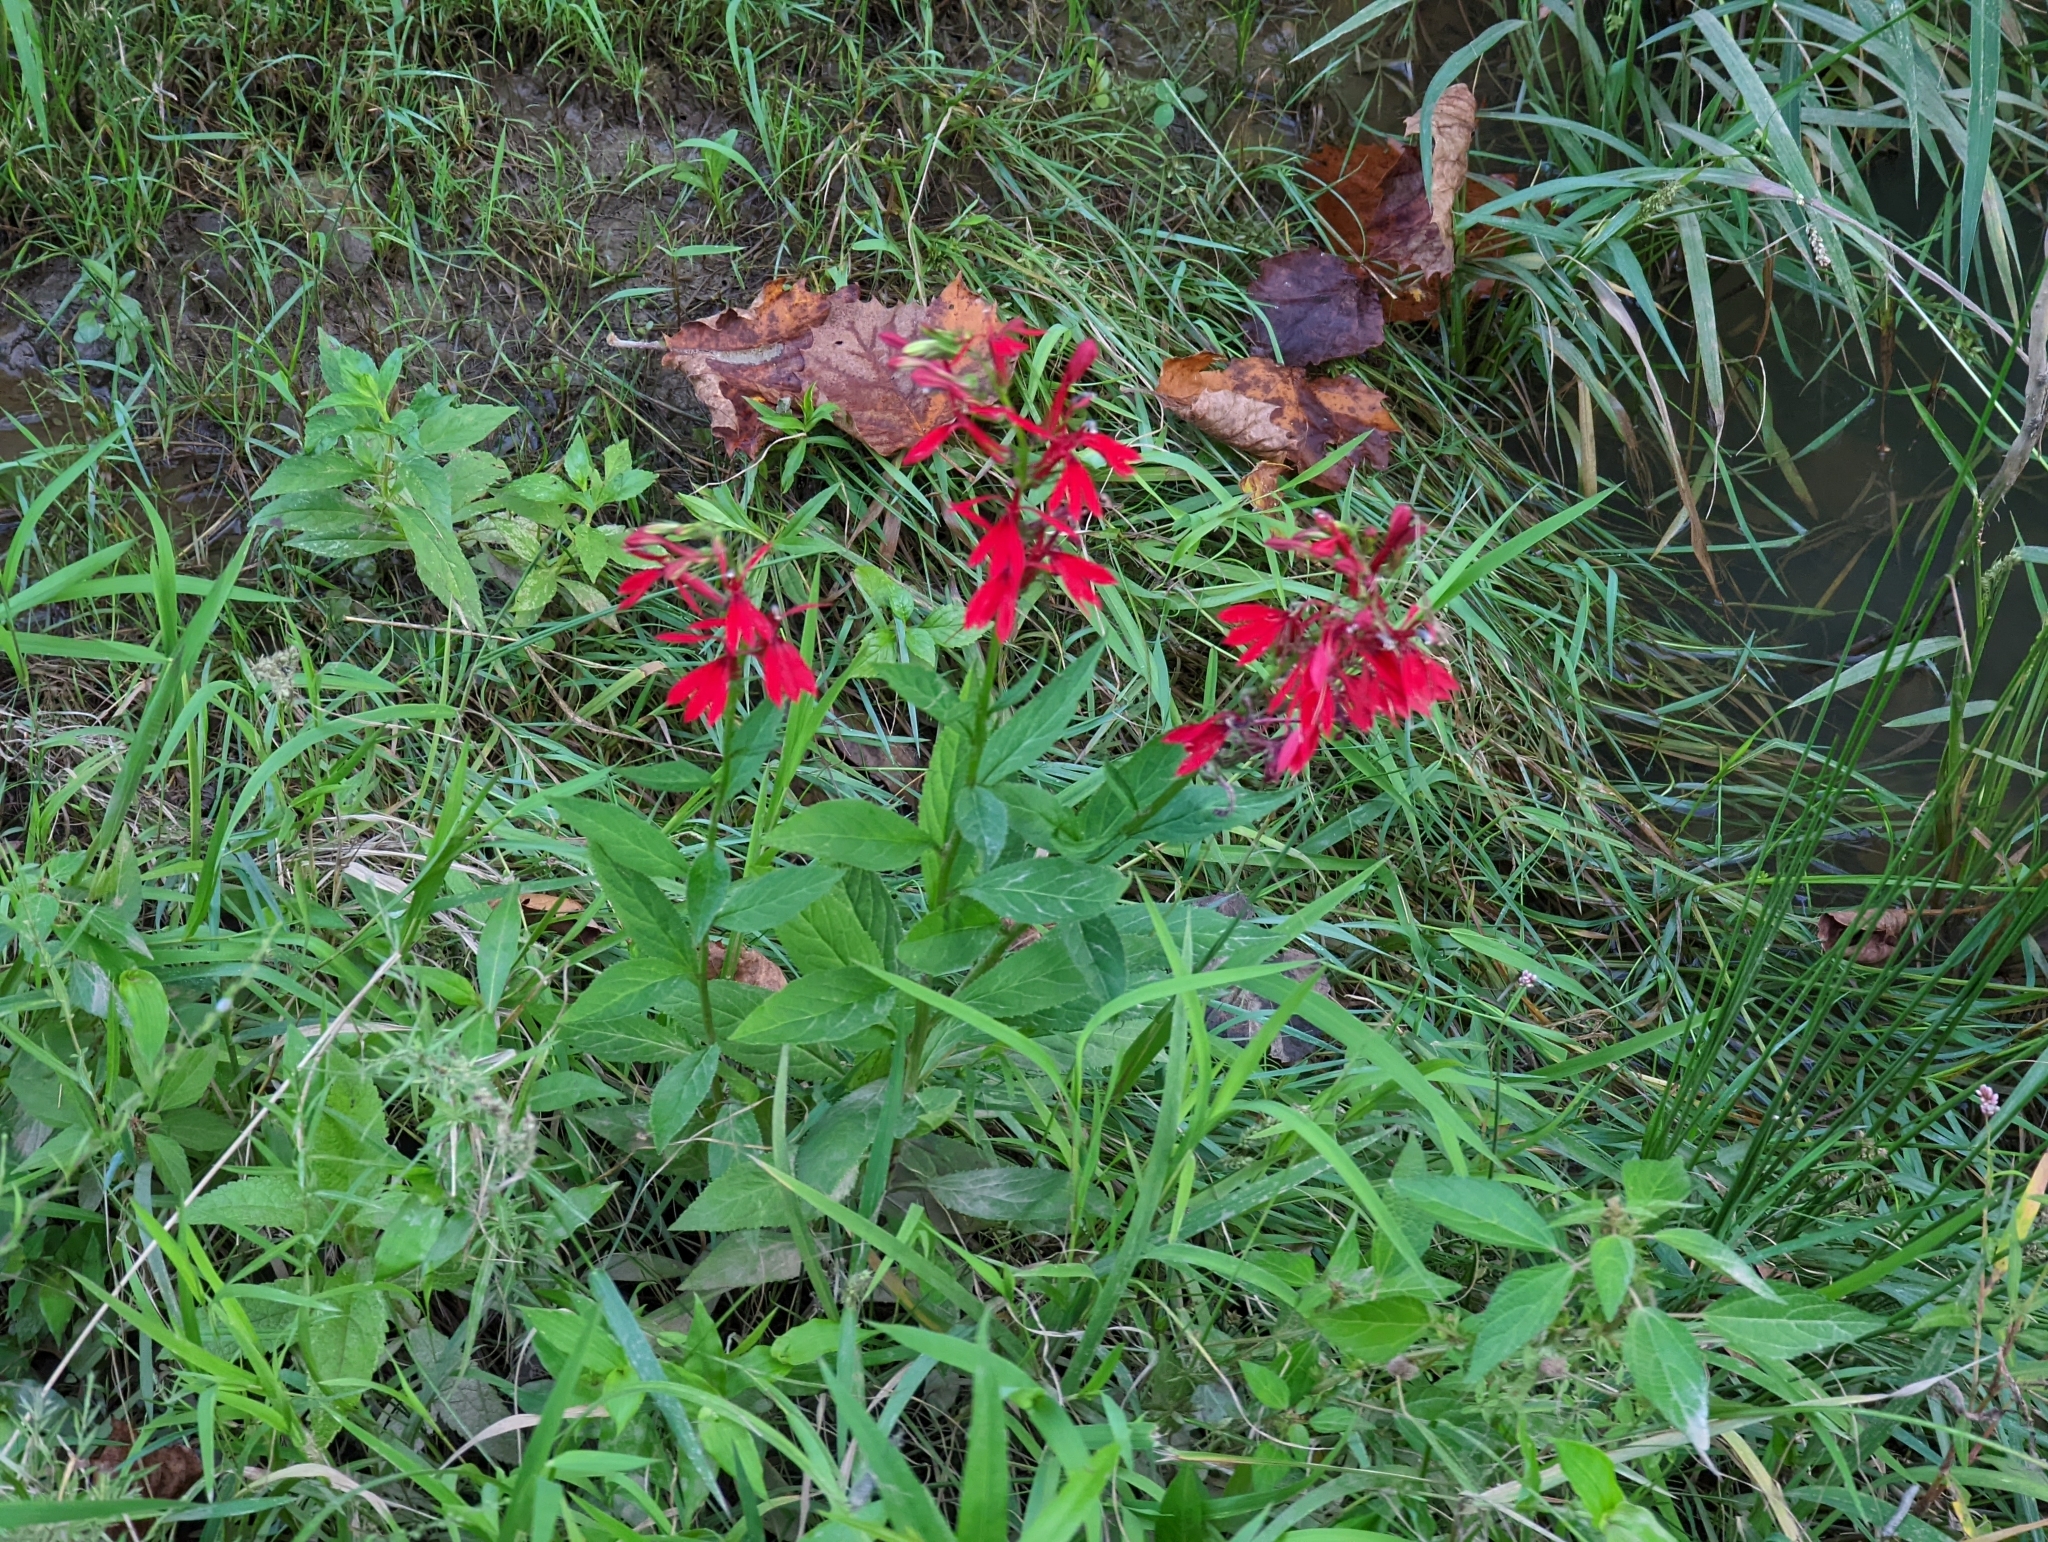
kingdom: Plantae
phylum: Tracheophyta
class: Magnoliopsida
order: Asterales
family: Campanulaceae
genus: Lobelia
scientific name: Lobelia cardinalis
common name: Cardinal flower
